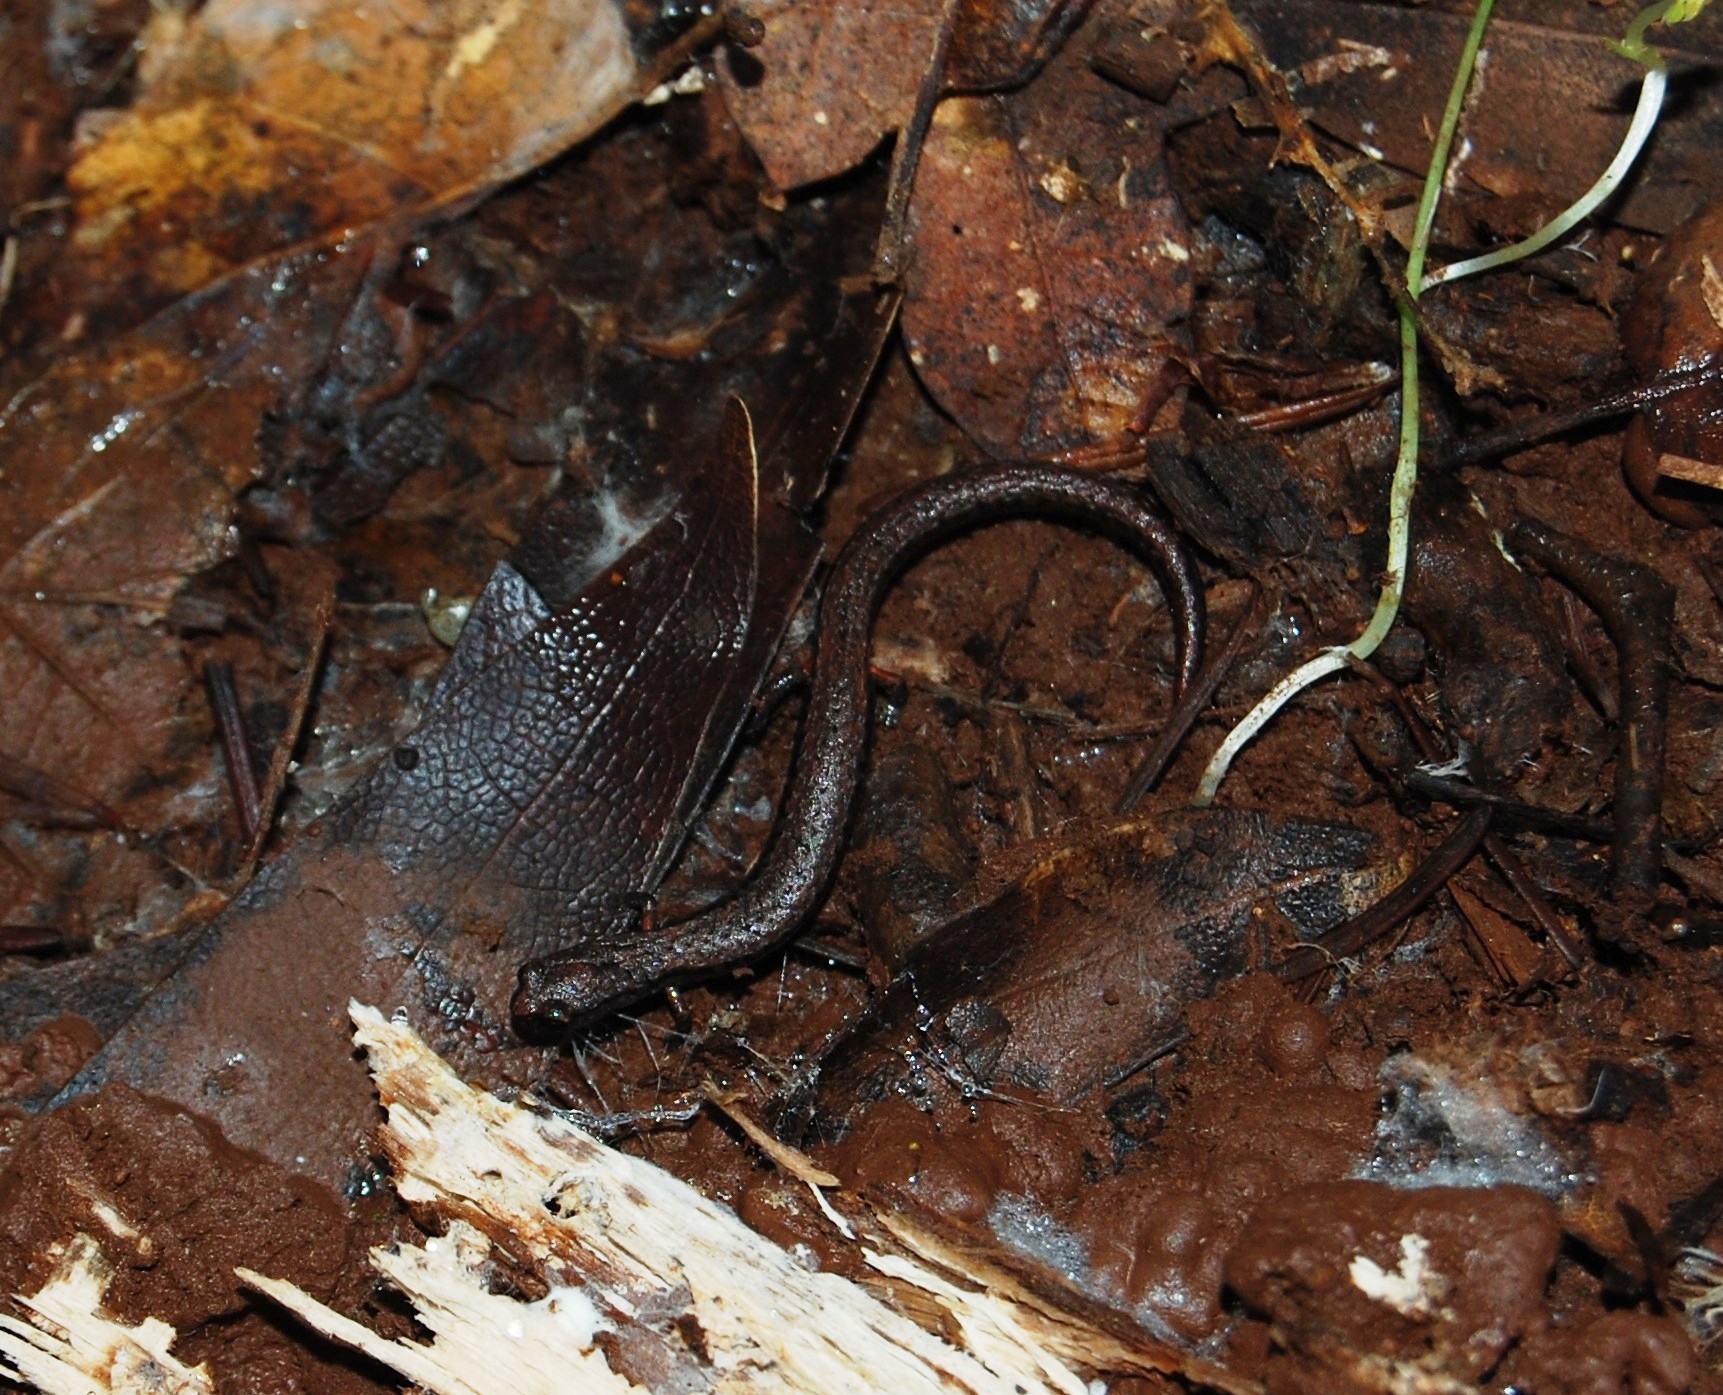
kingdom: Animalia
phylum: Chordata
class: Amphibia
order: Caudata
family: Plethodontidae
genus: Batrachoseps
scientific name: Batrachoseps attenuatus
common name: California slender salamander
